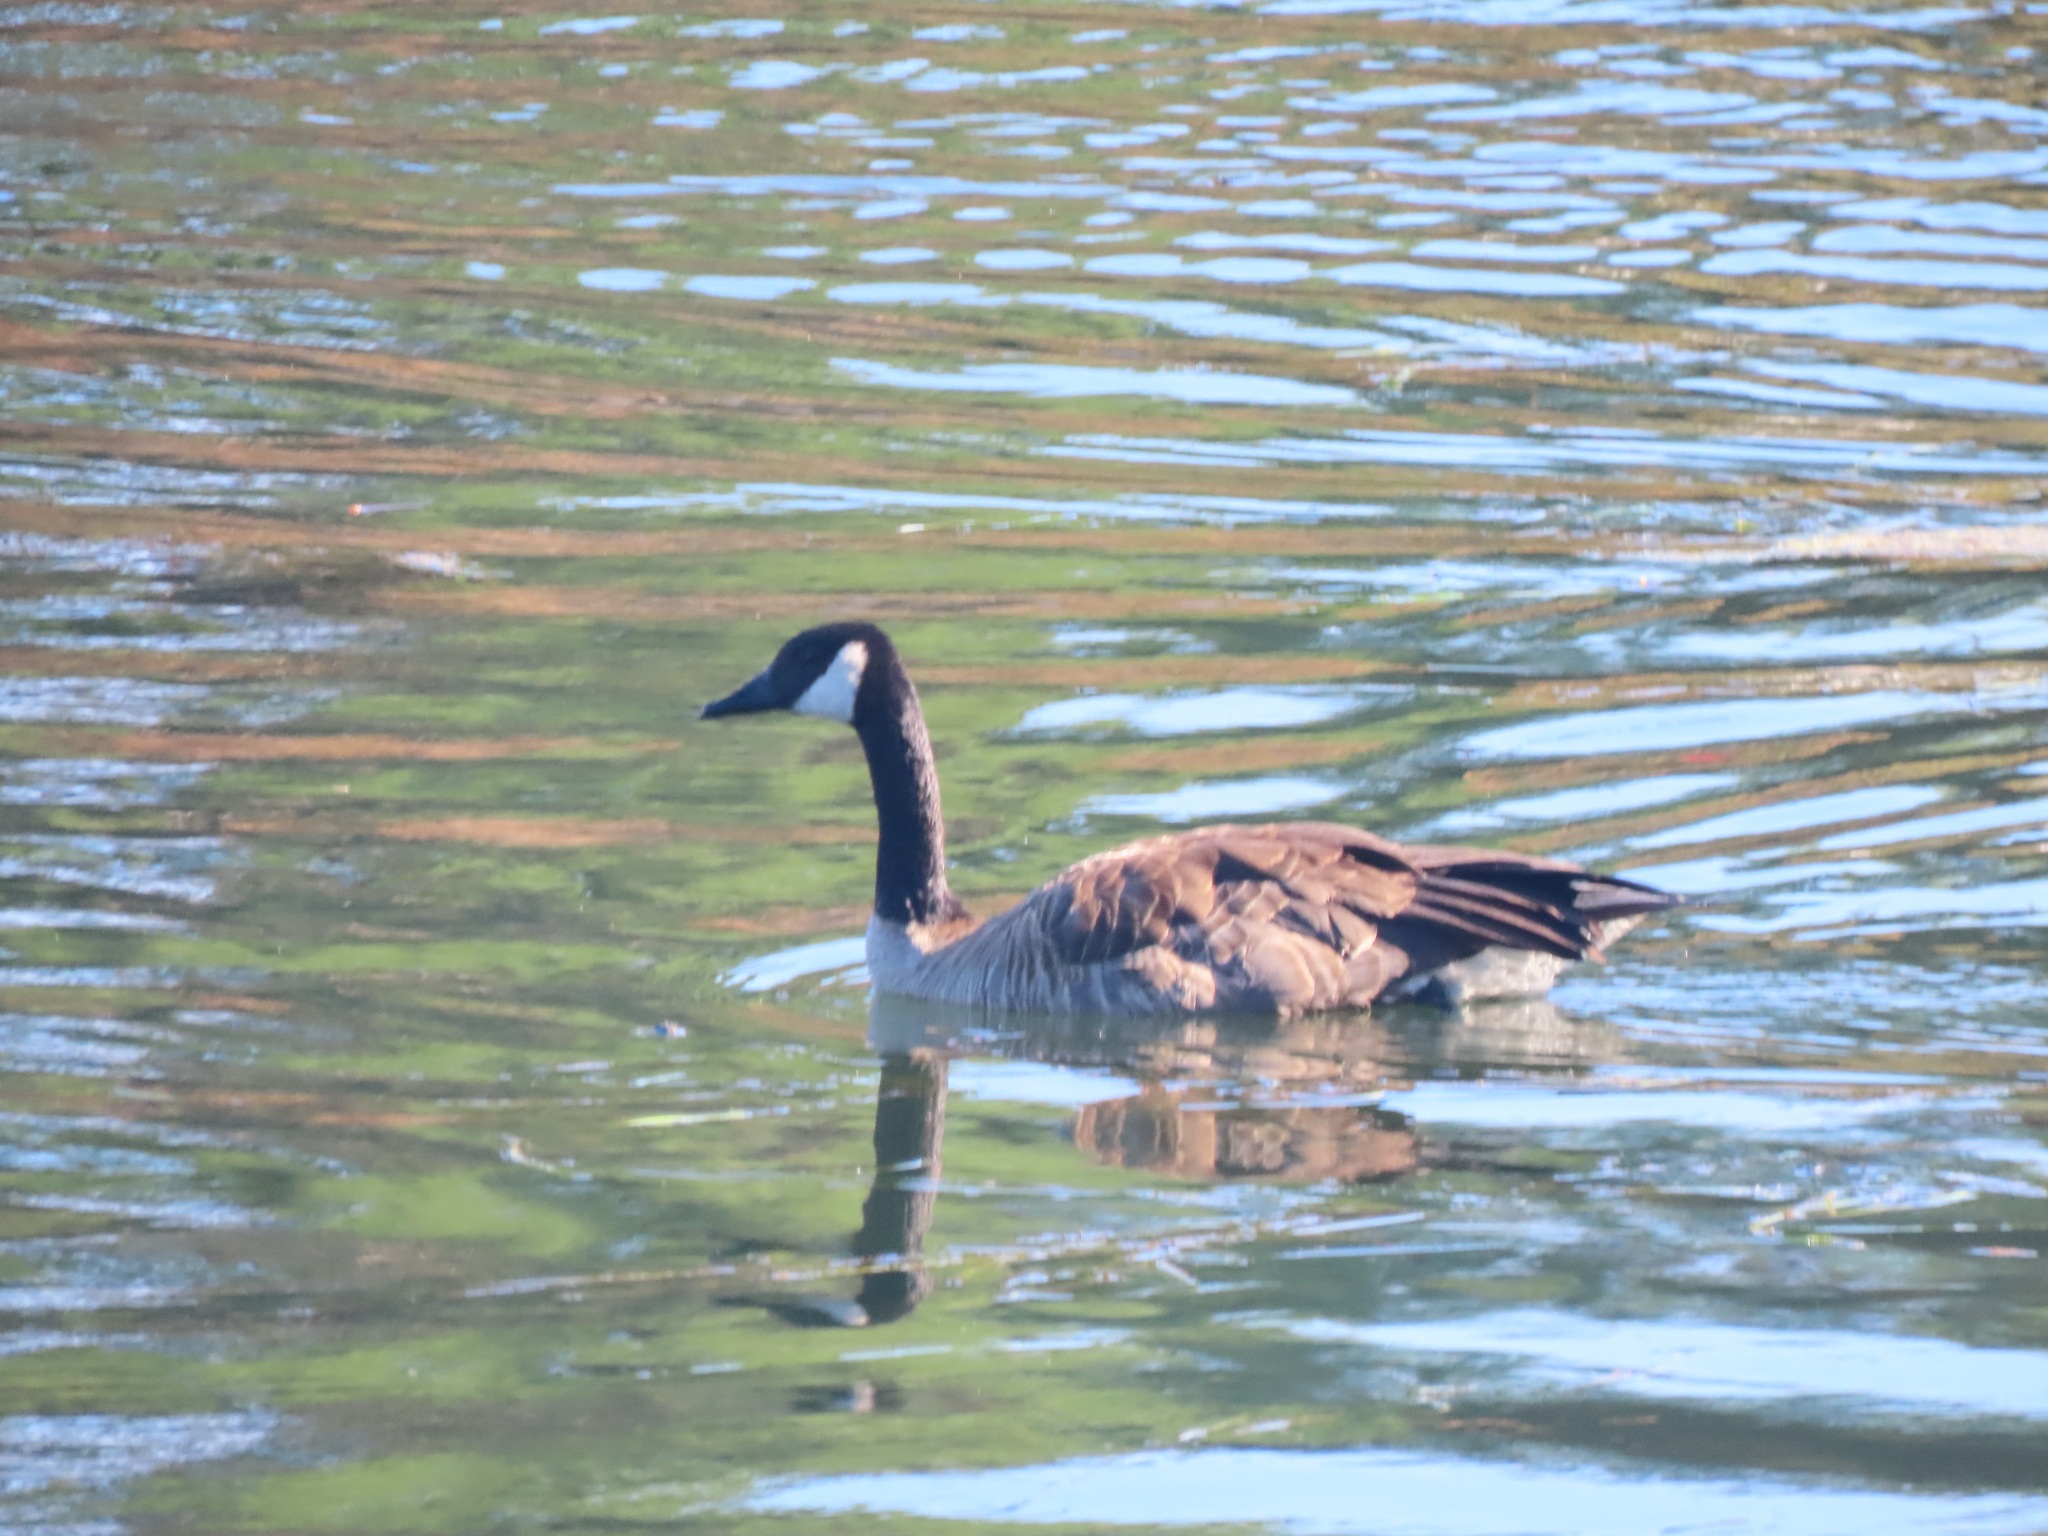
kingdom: Animalia
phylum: Chordata
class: Aves
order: Anseriformes
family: Anatidae
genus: Branta
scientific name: Branta canadensis
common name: Canada goose
